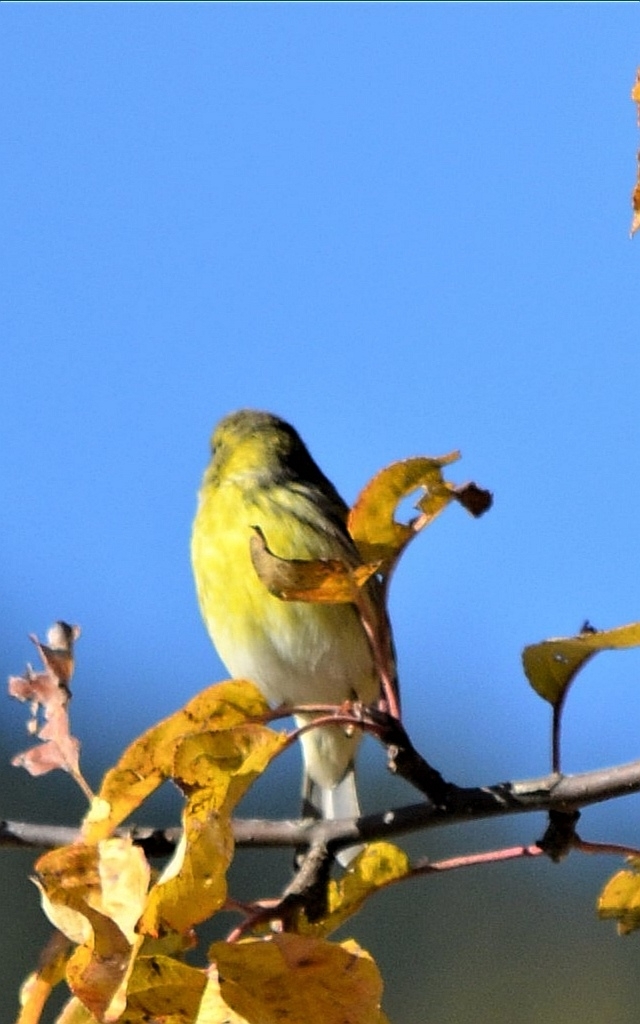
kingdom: Animalia
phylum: Chordata
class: Aves
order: Passeriformes
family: Fringillidae
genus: Serinus
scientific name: Serinus serinus
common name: European serin
